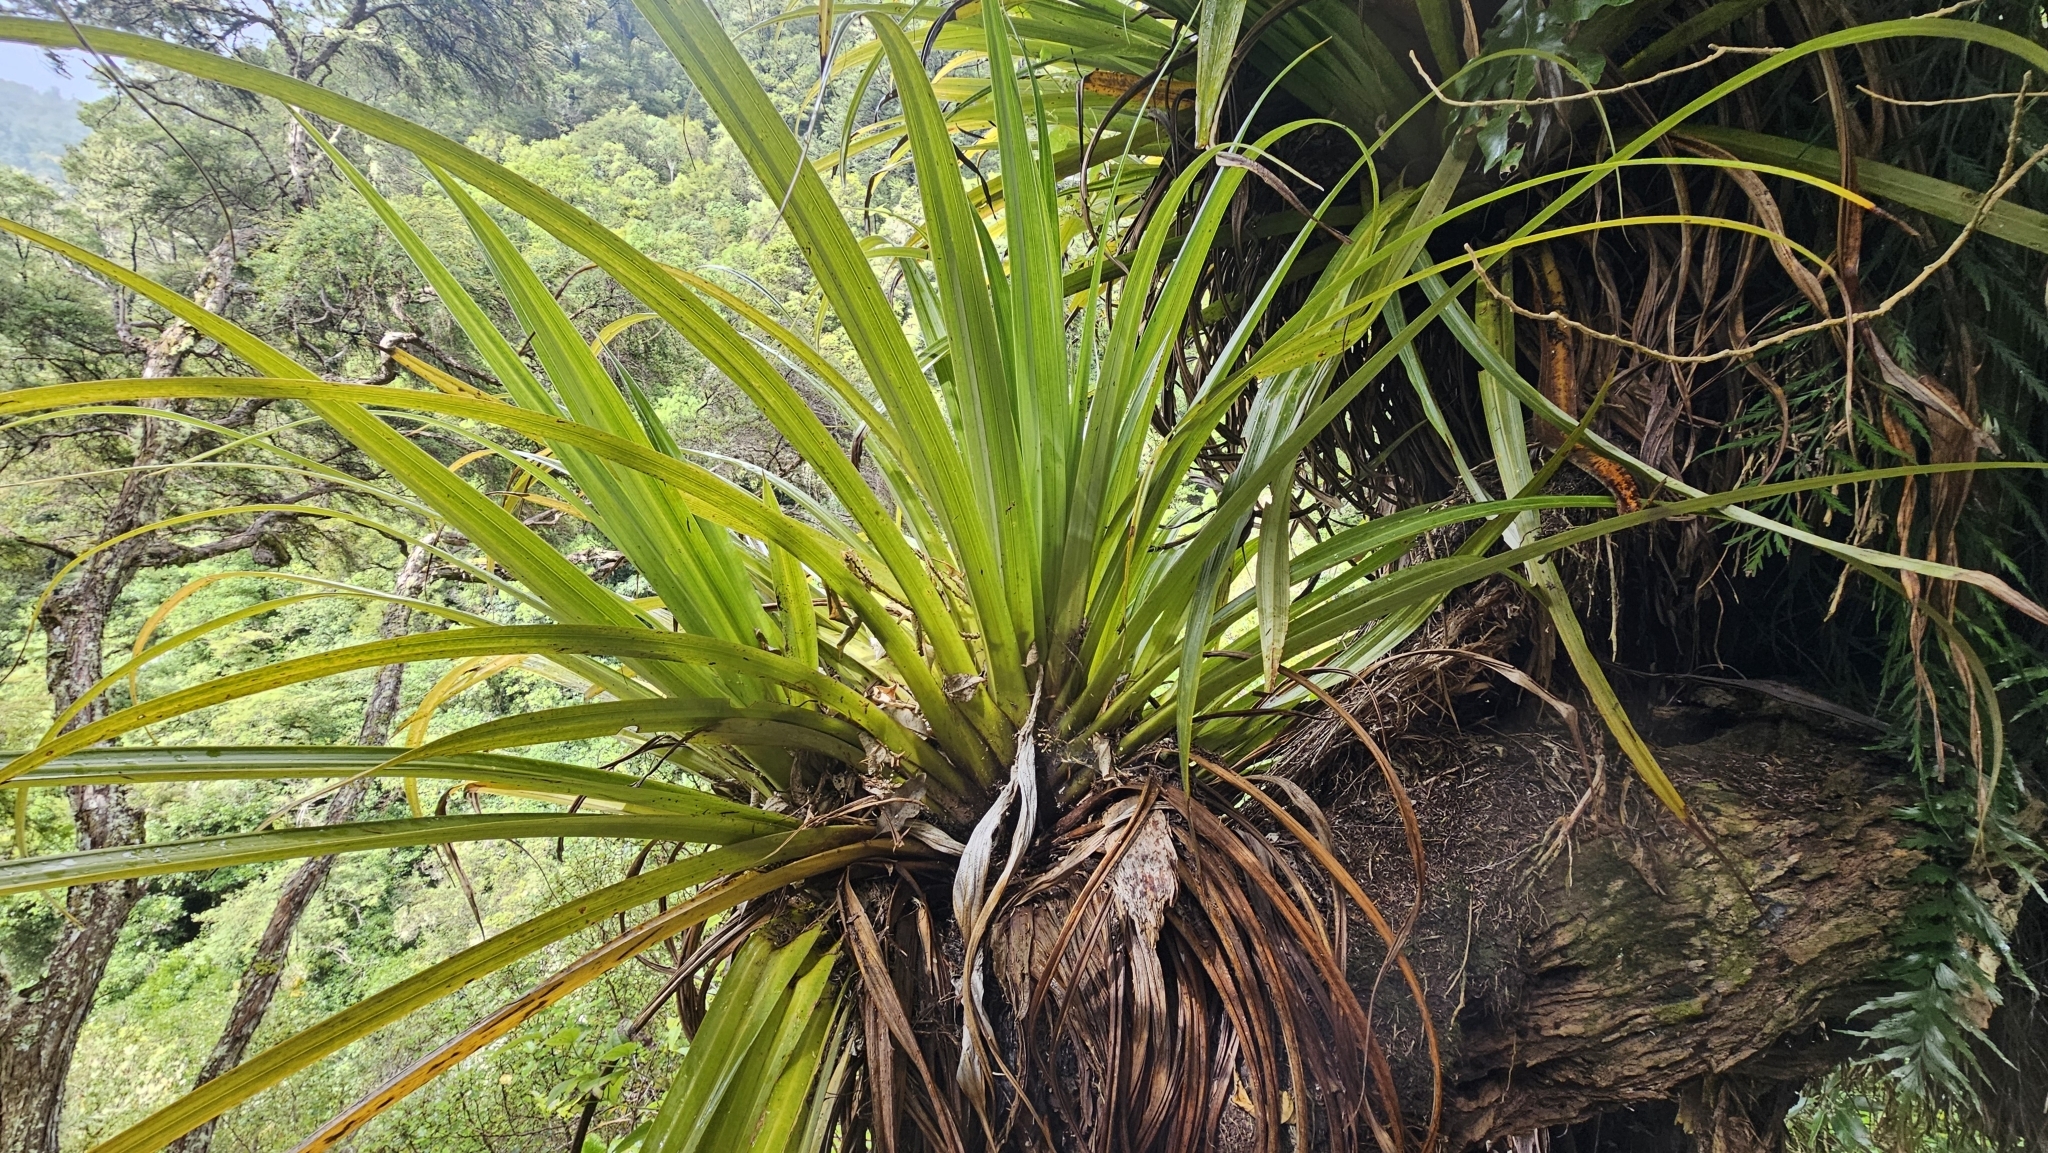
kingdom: Plantae
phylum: Tracheophyta
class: Liliopsida
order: Asparagales
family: Asteliaceae
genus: Astelia
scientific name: Astelia hastata
